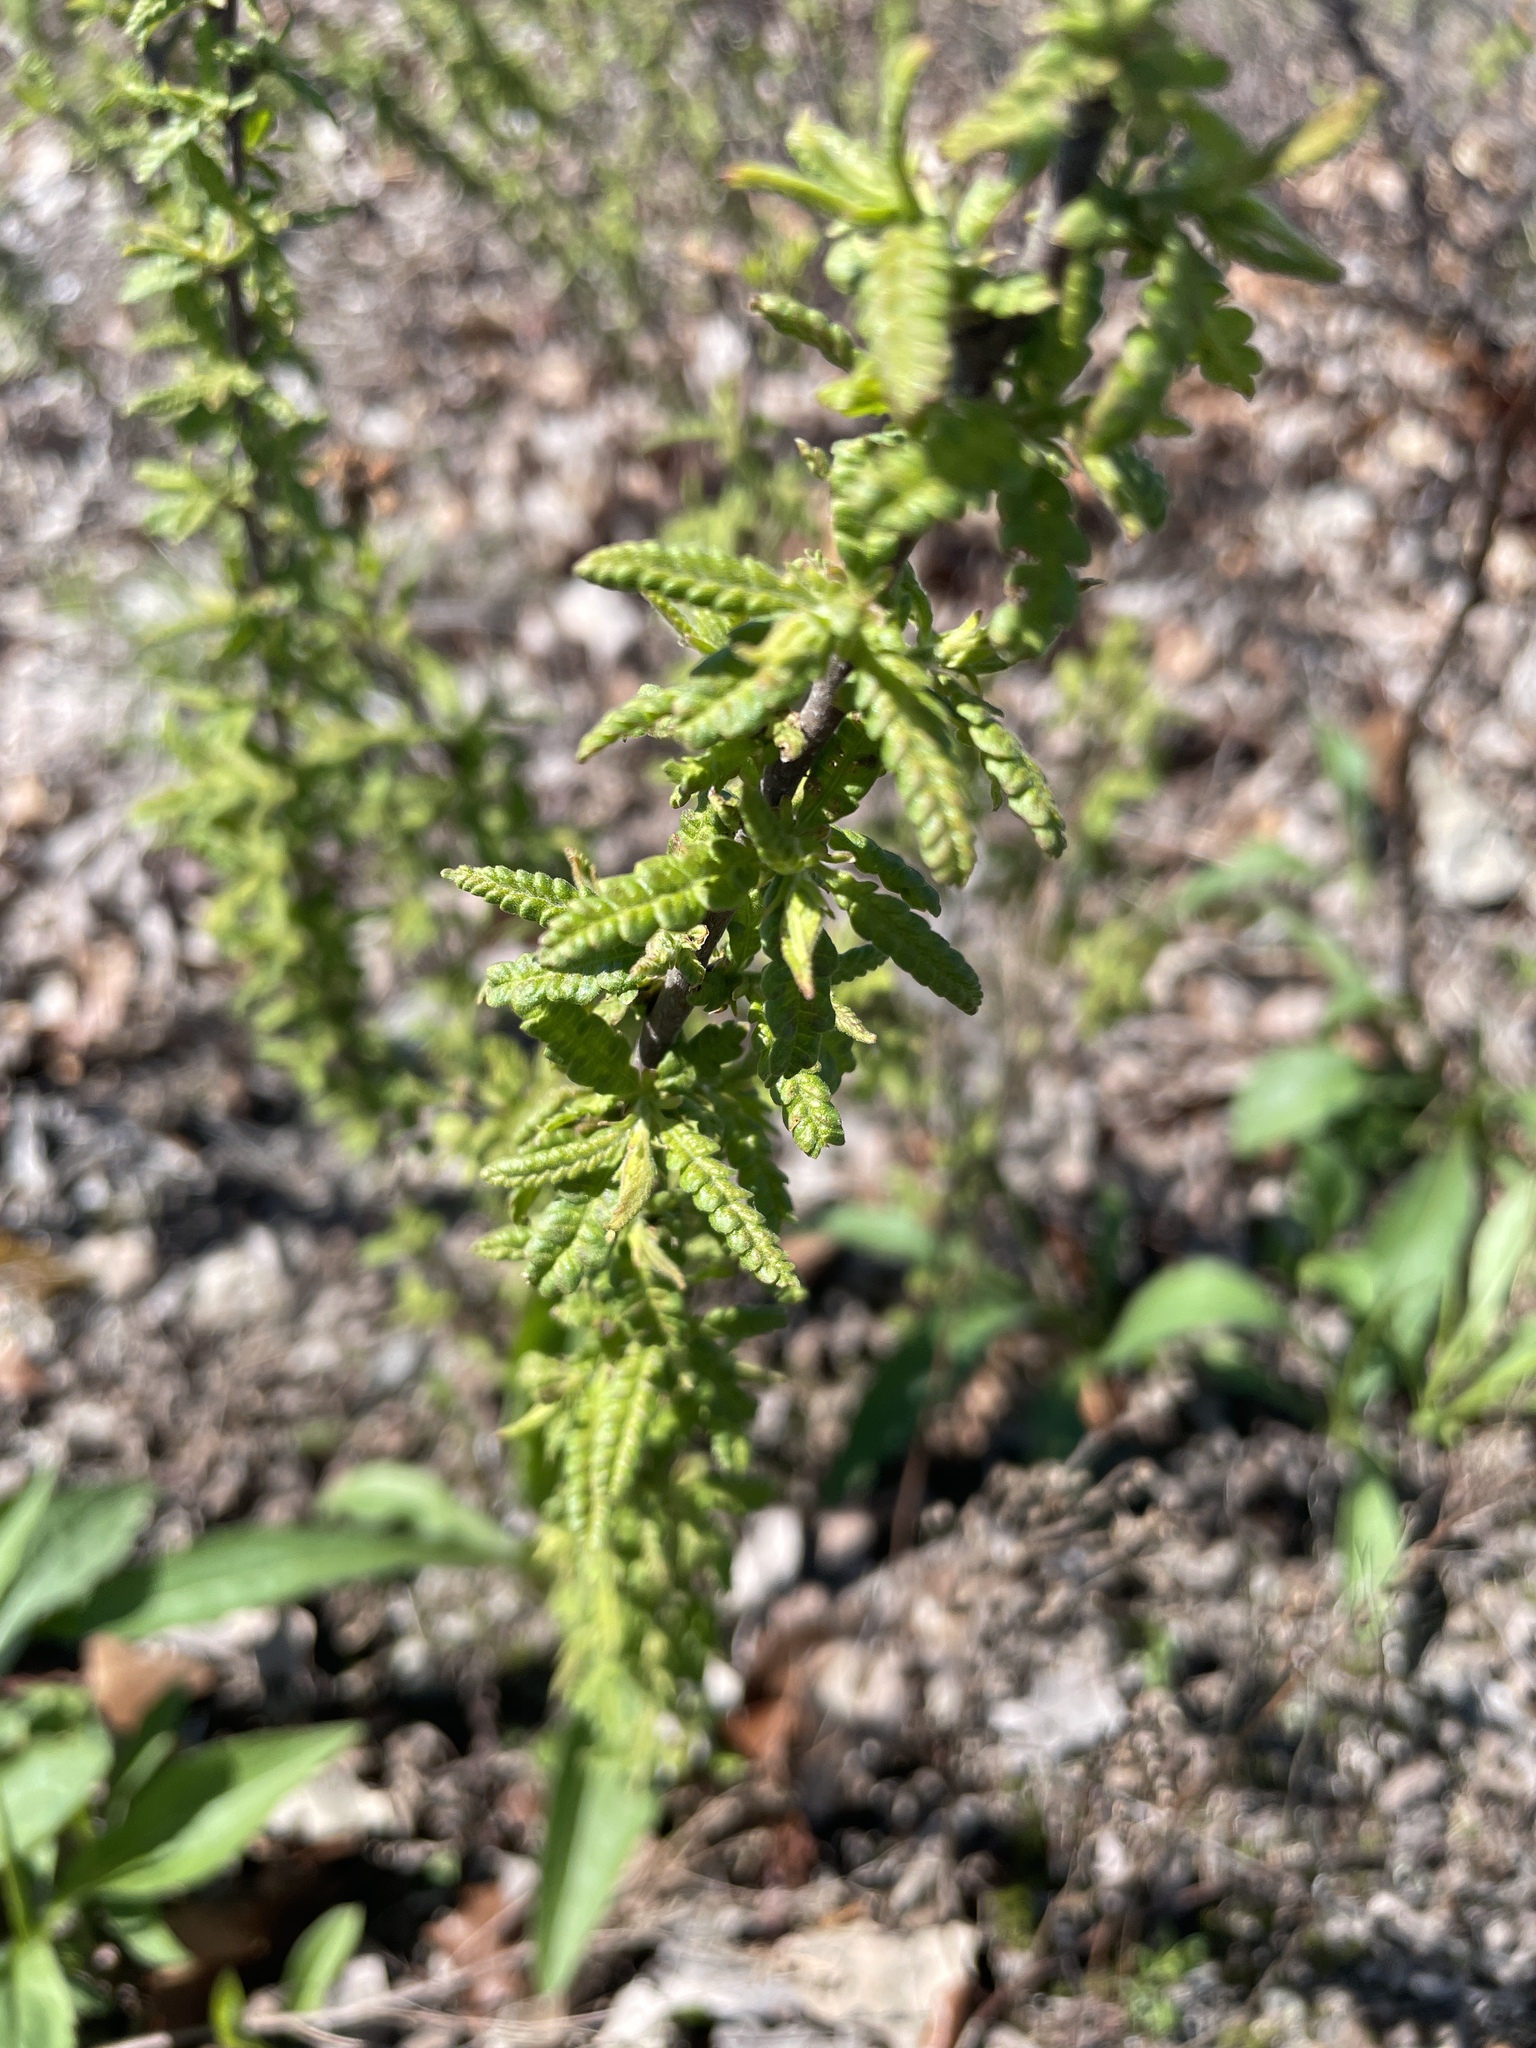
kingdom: Plantae
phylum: Tracheophyta
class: Magnoliopsida
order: Fagales
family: Myricaceae
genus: Comptonia
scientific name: Comptonia peregrina
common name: Sweet-fern
